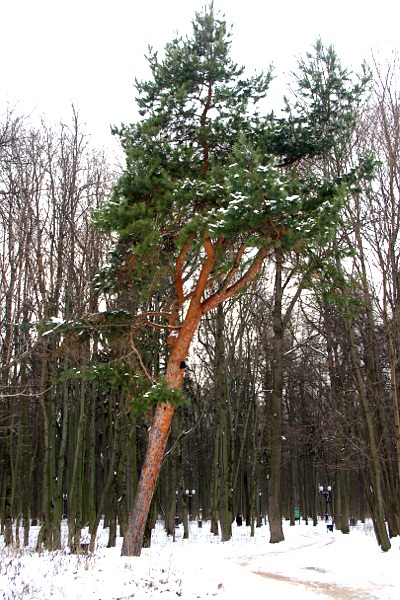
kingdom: Plantae
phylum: Tracheophyta
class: Pinopsida
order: Pinales
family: Pinaceae
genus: Pinus
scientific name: Pinus sylvestris
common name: Scots pine
